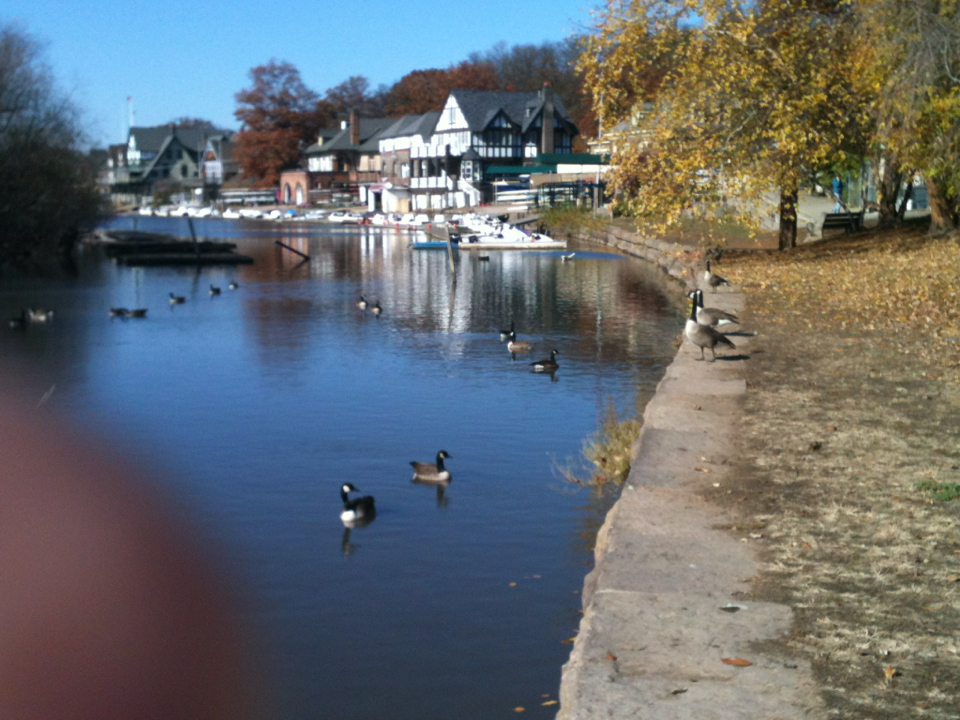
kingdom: Animalia
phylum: Chordata
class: Aves
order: Anseriformes
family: Anatidae
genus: Branta
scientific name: Branta canadensis
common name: Canada goose
